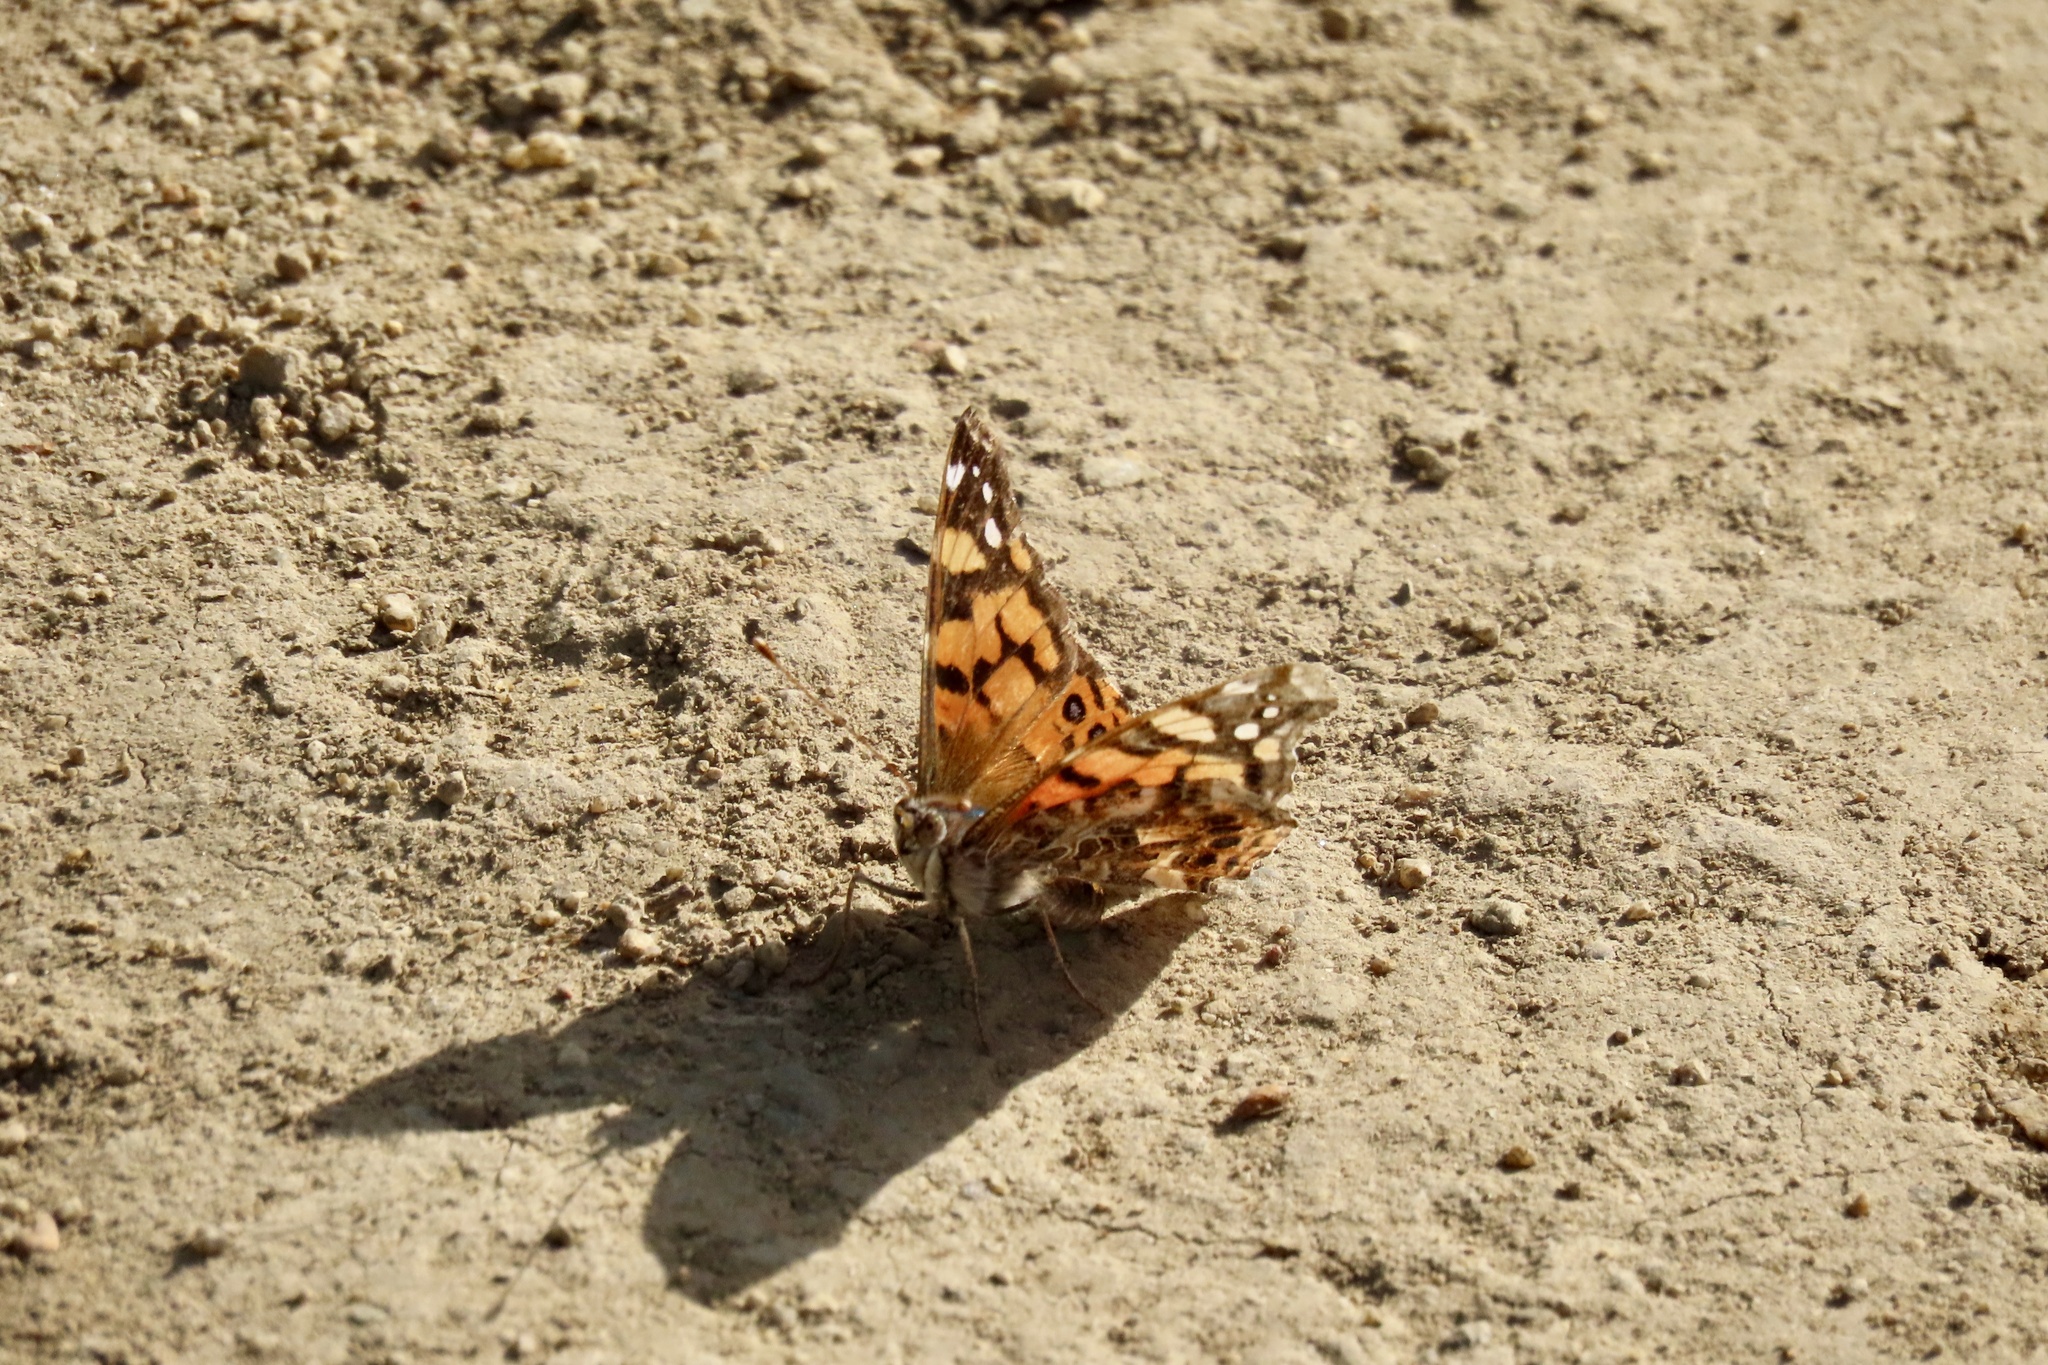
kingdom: Animalia
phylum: Arthropoda
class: Insecta
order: Lepidoptera
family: Nymphalidae
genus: Vanessa
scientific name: Vanessa annabella
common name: West coast lady
